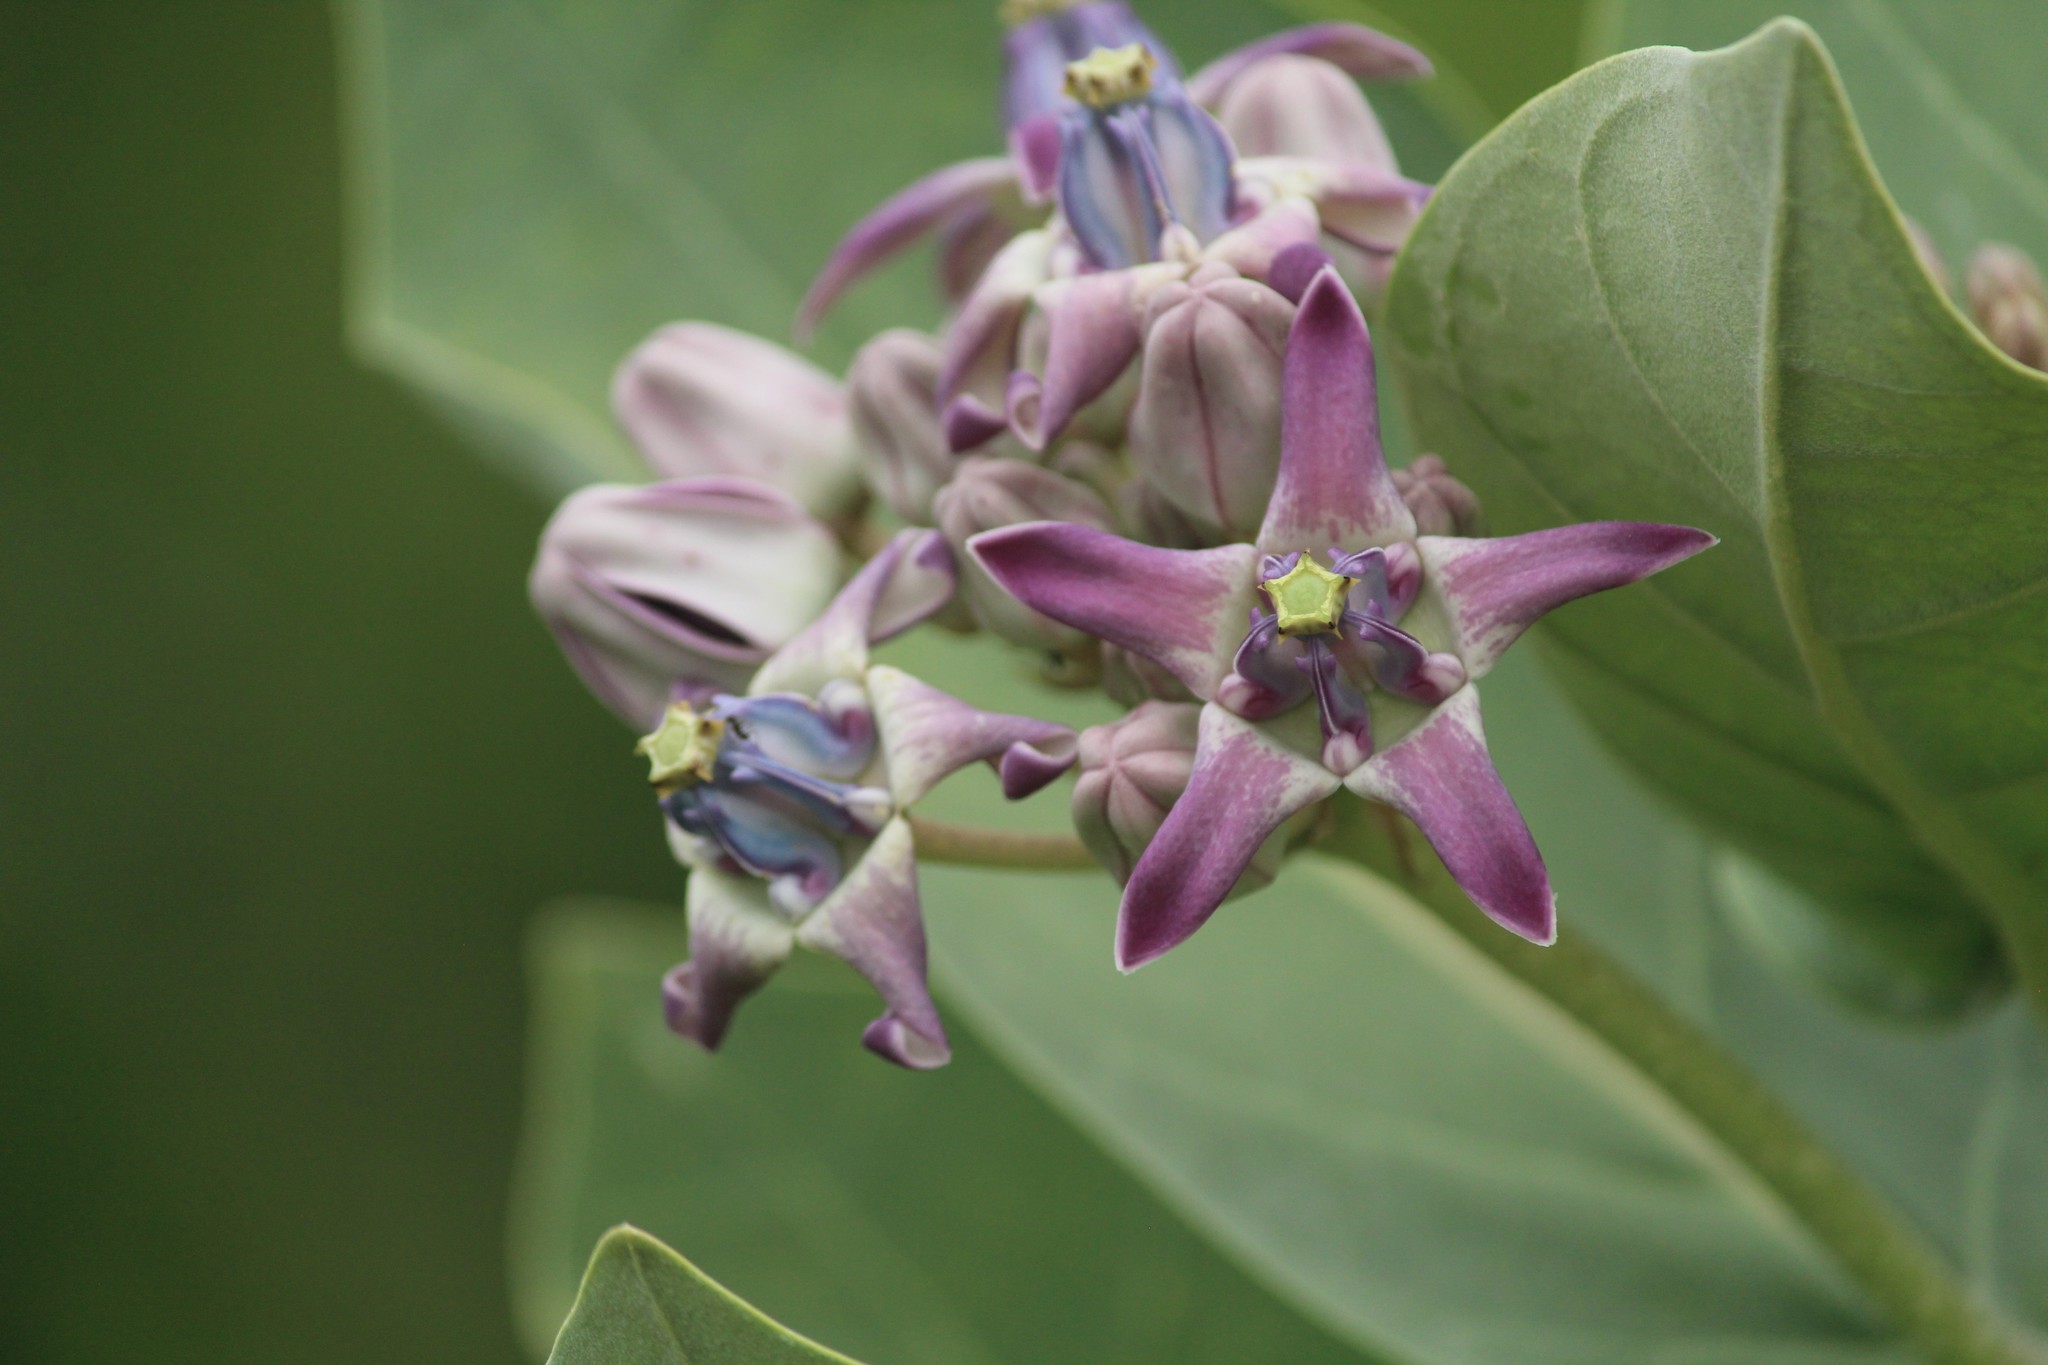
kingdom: Plantae
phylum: Tracheophyta
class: Magnoliopsida
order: Gentianales
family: Apocynaceae
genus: Calotropis
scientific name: Calotropis gigantea
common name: Crown flower
